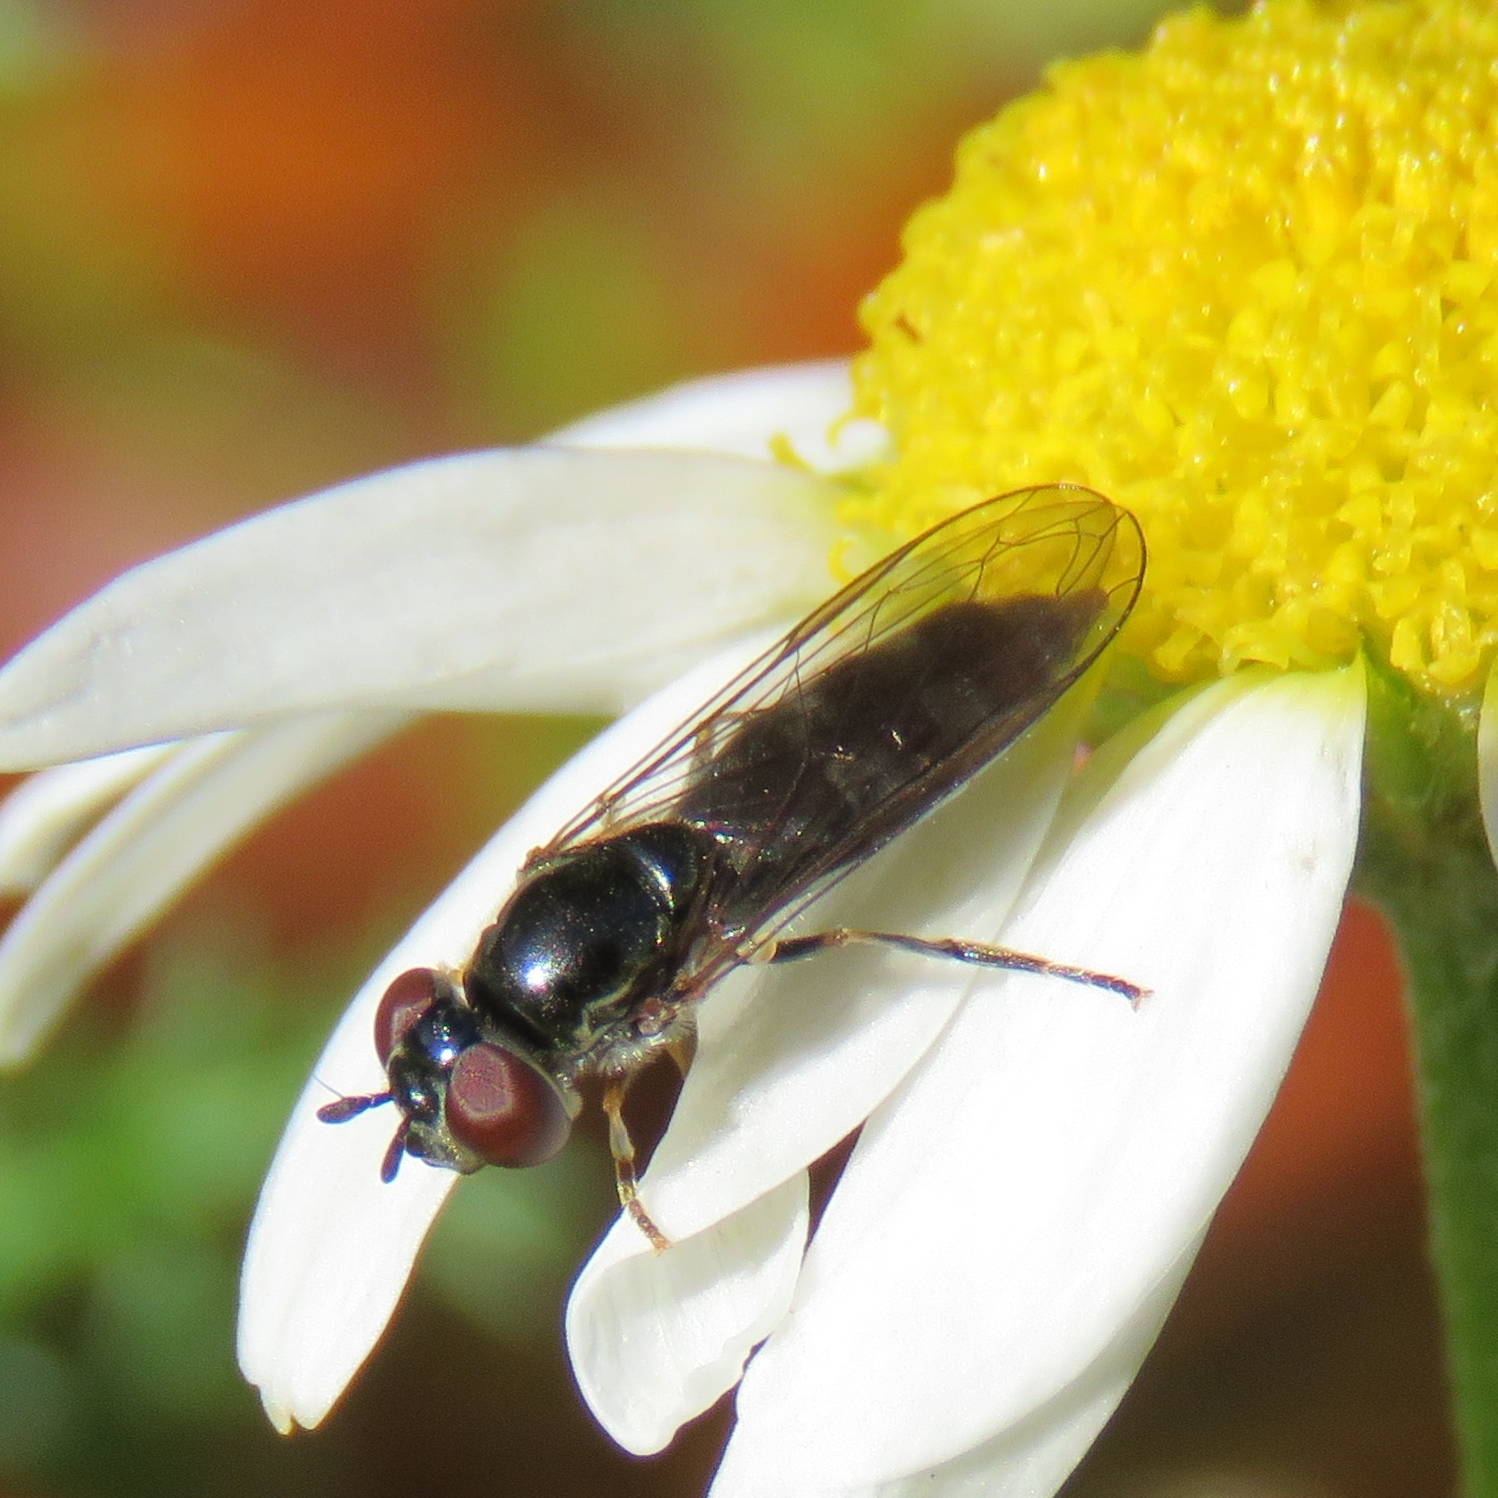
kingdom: Animalia
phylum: Arthropoda
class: Insecta
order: Diptera
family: Syrphidae
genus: Platycheirus
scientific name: Platycheirus albimanus
